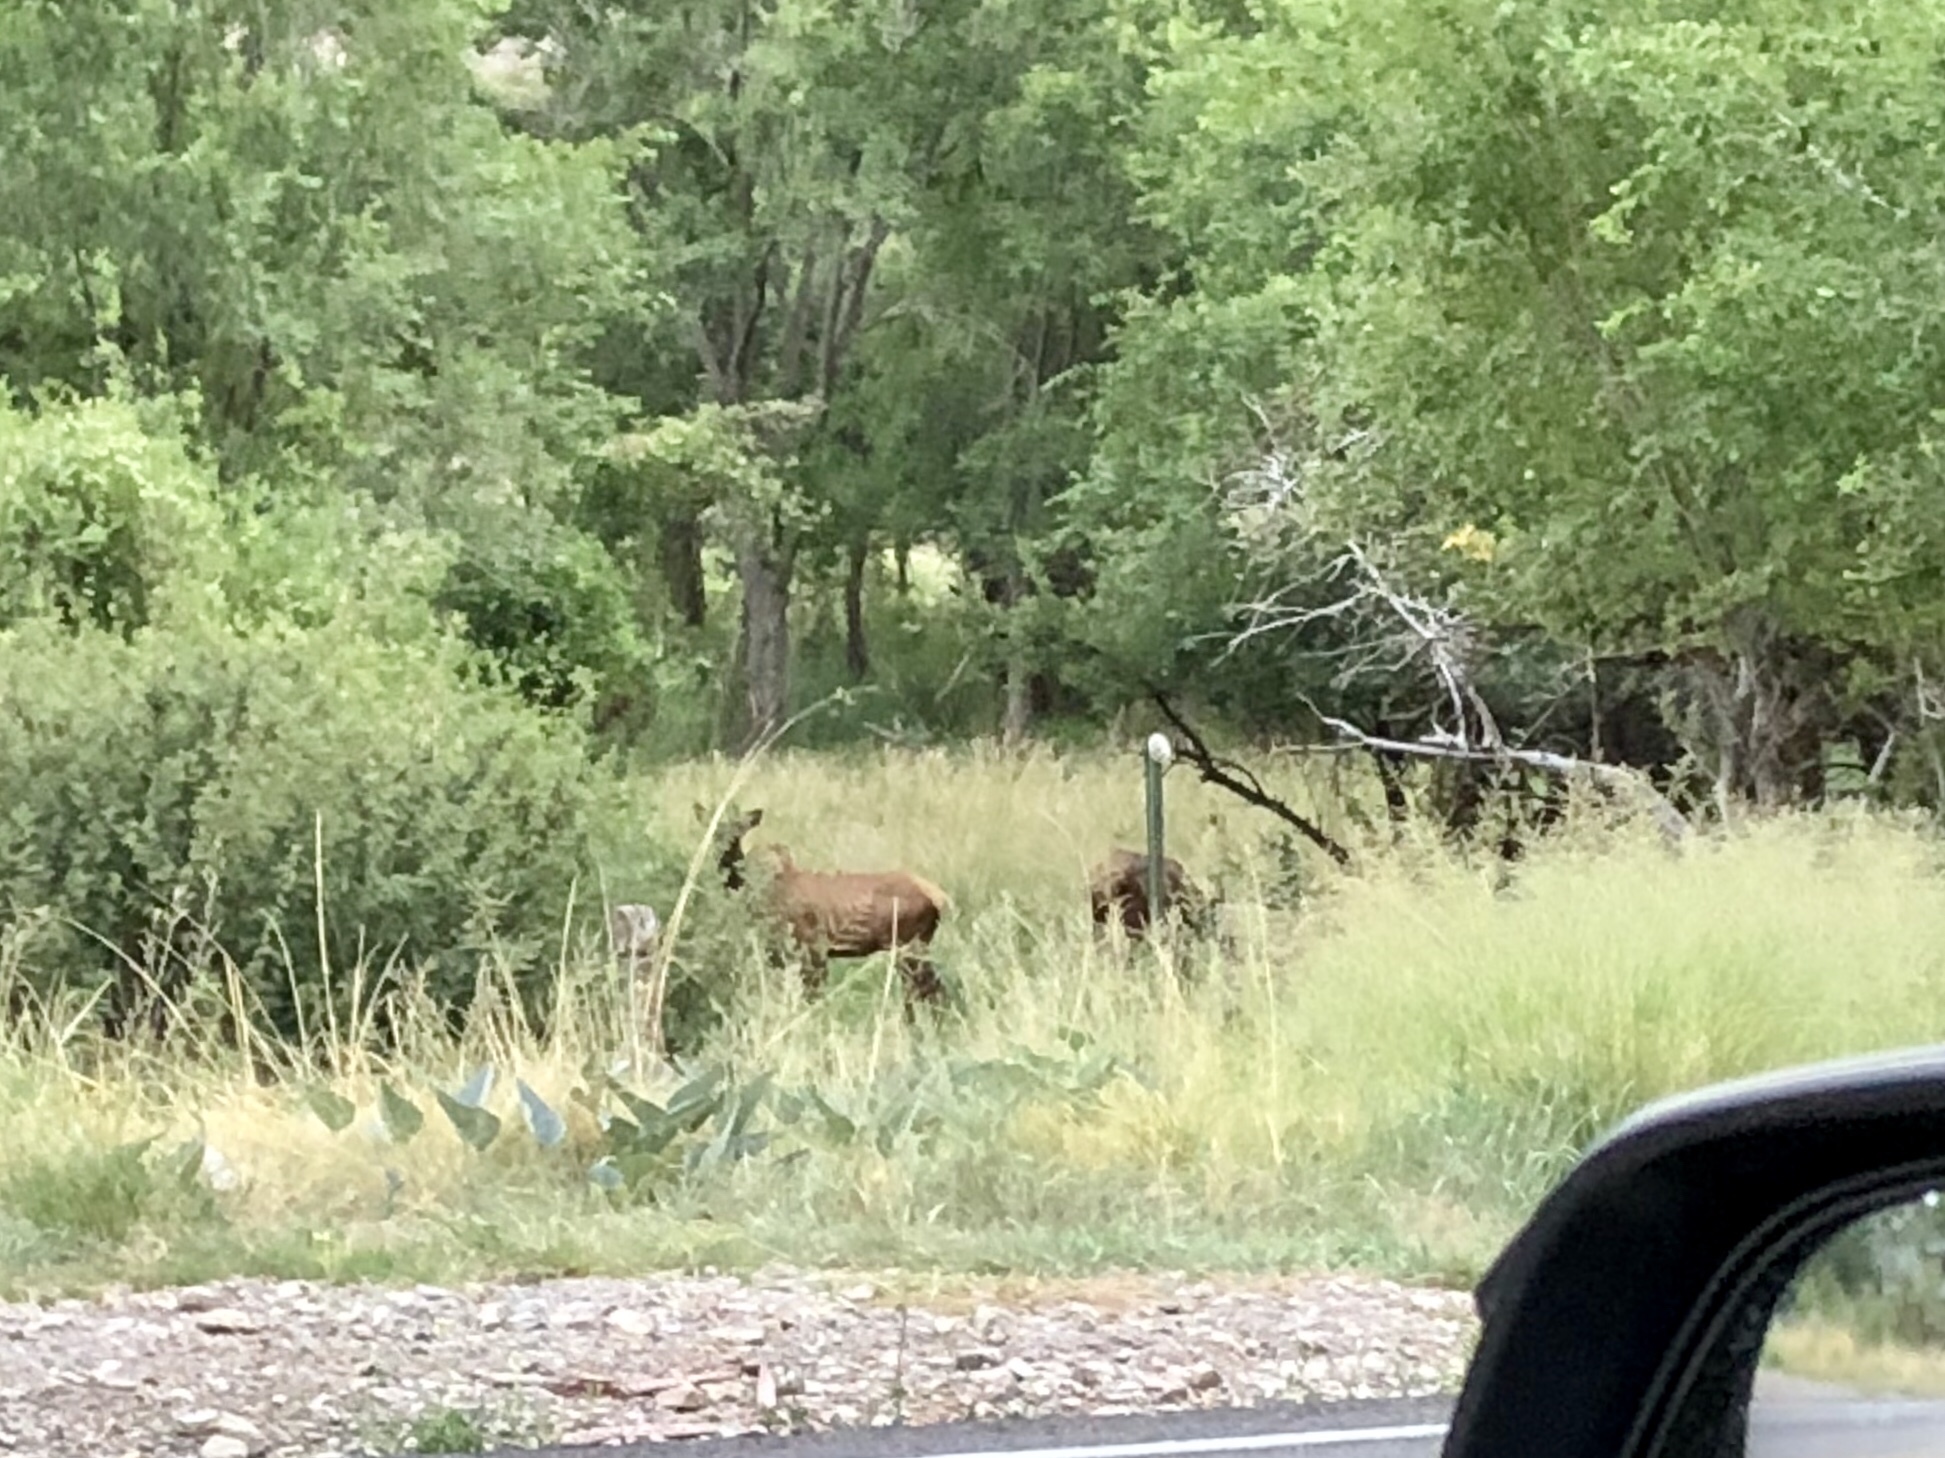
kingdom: Animalia
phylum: Chordata
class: Mammalia
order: Artiodactyla
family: Cervidae
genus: Cervus
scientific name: Cervus elaphus
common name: Red deer
